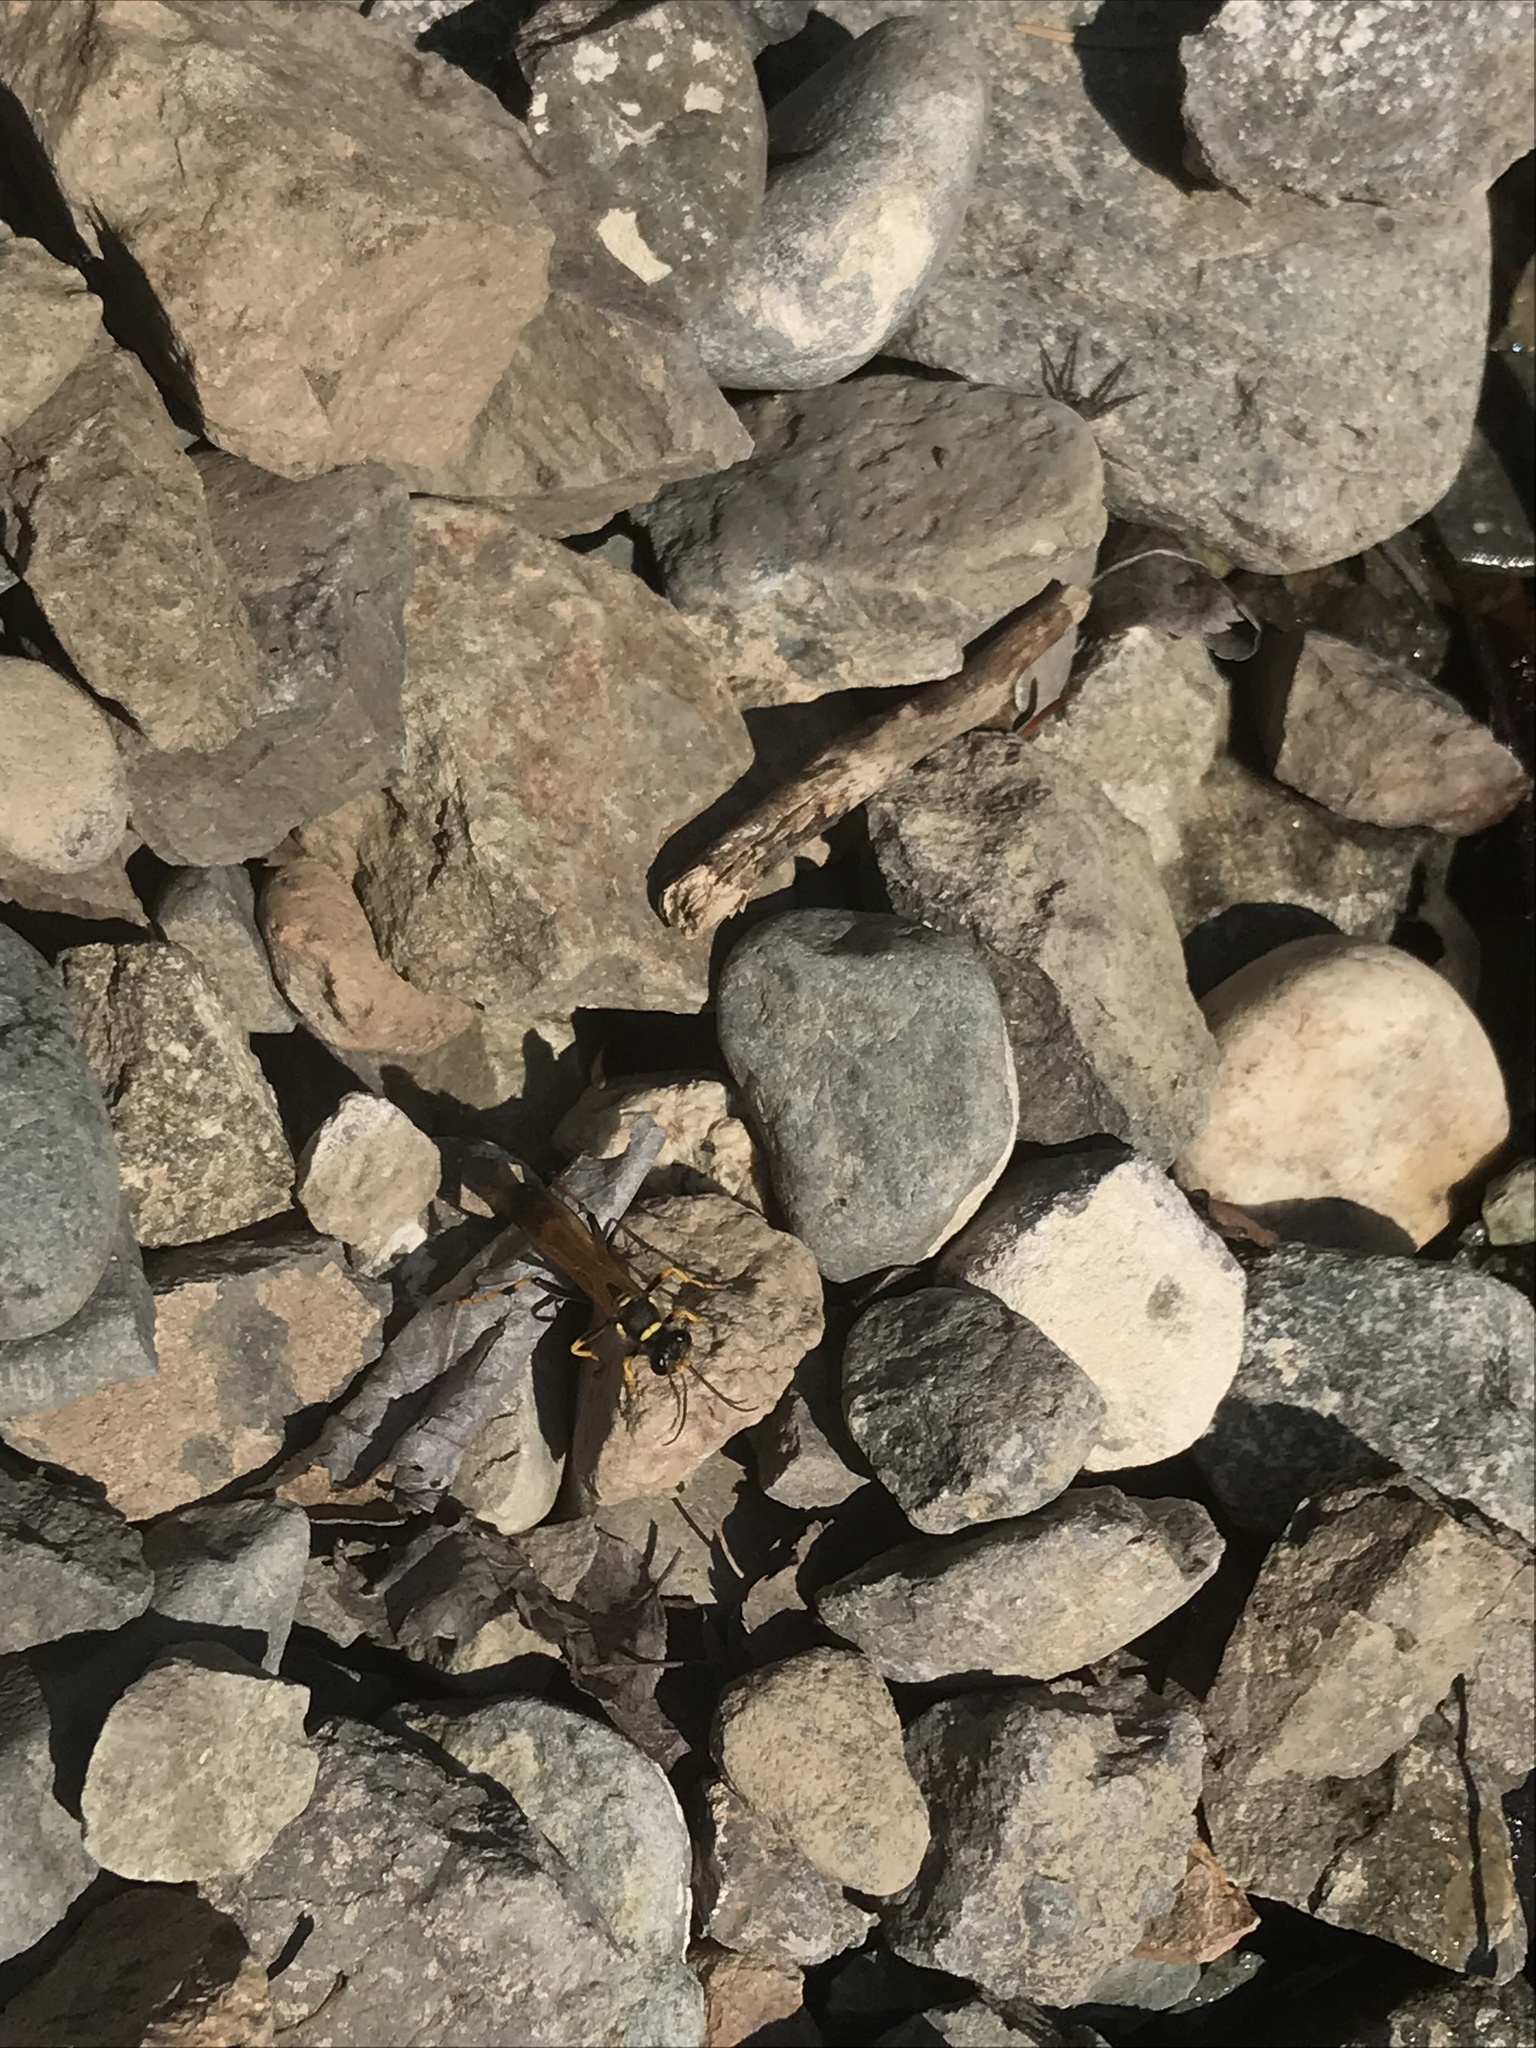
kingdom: Animalia
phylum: Arthropoda
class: Insecta
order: Hymenoptera
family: Sphecidae
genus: Sceliphron
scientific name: Sceliphron caementarium
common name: Mud dauber
